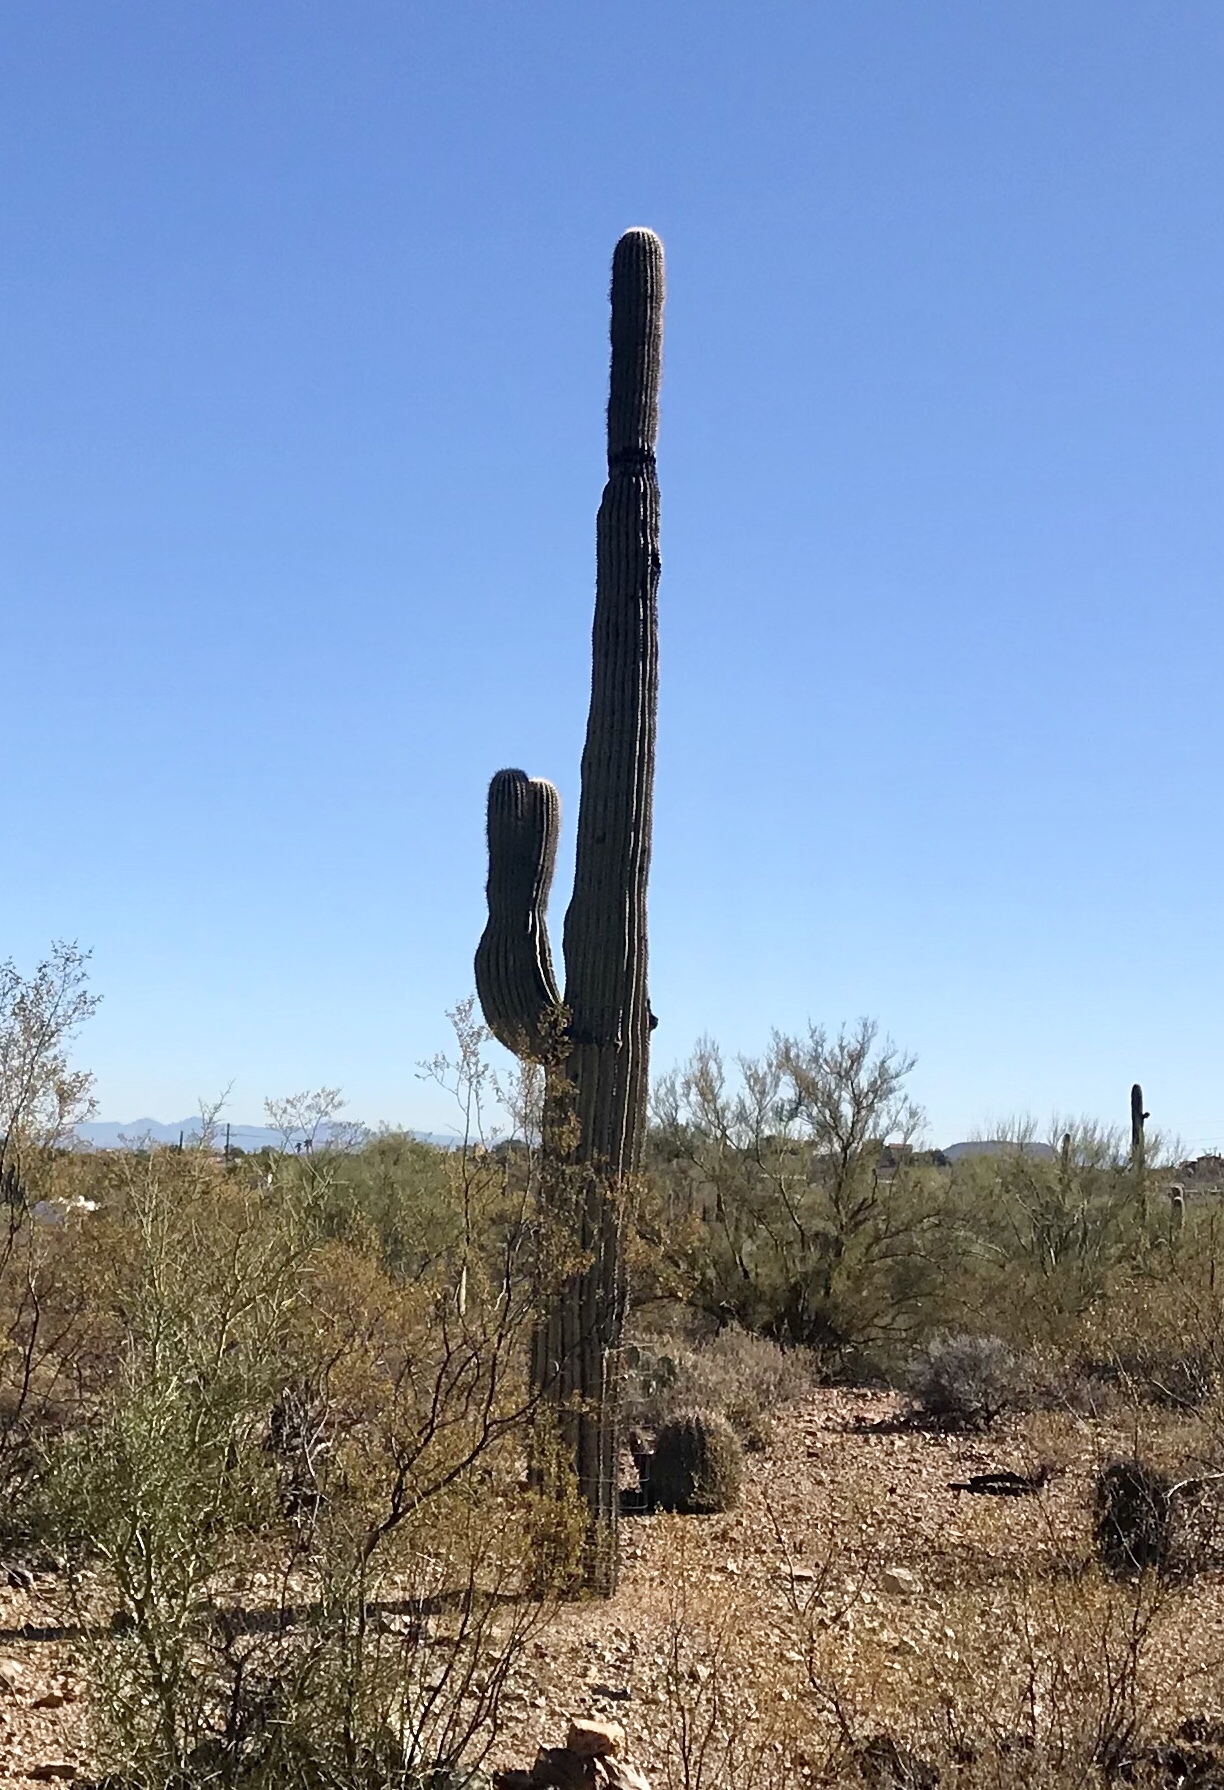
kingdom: Plantae
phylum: Tracheophyta
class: Magnoliopsida
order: Caryophyllales
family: Cactaceae
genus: Carnegiea
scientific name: Carnegiea gigantea
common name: Saguaro
